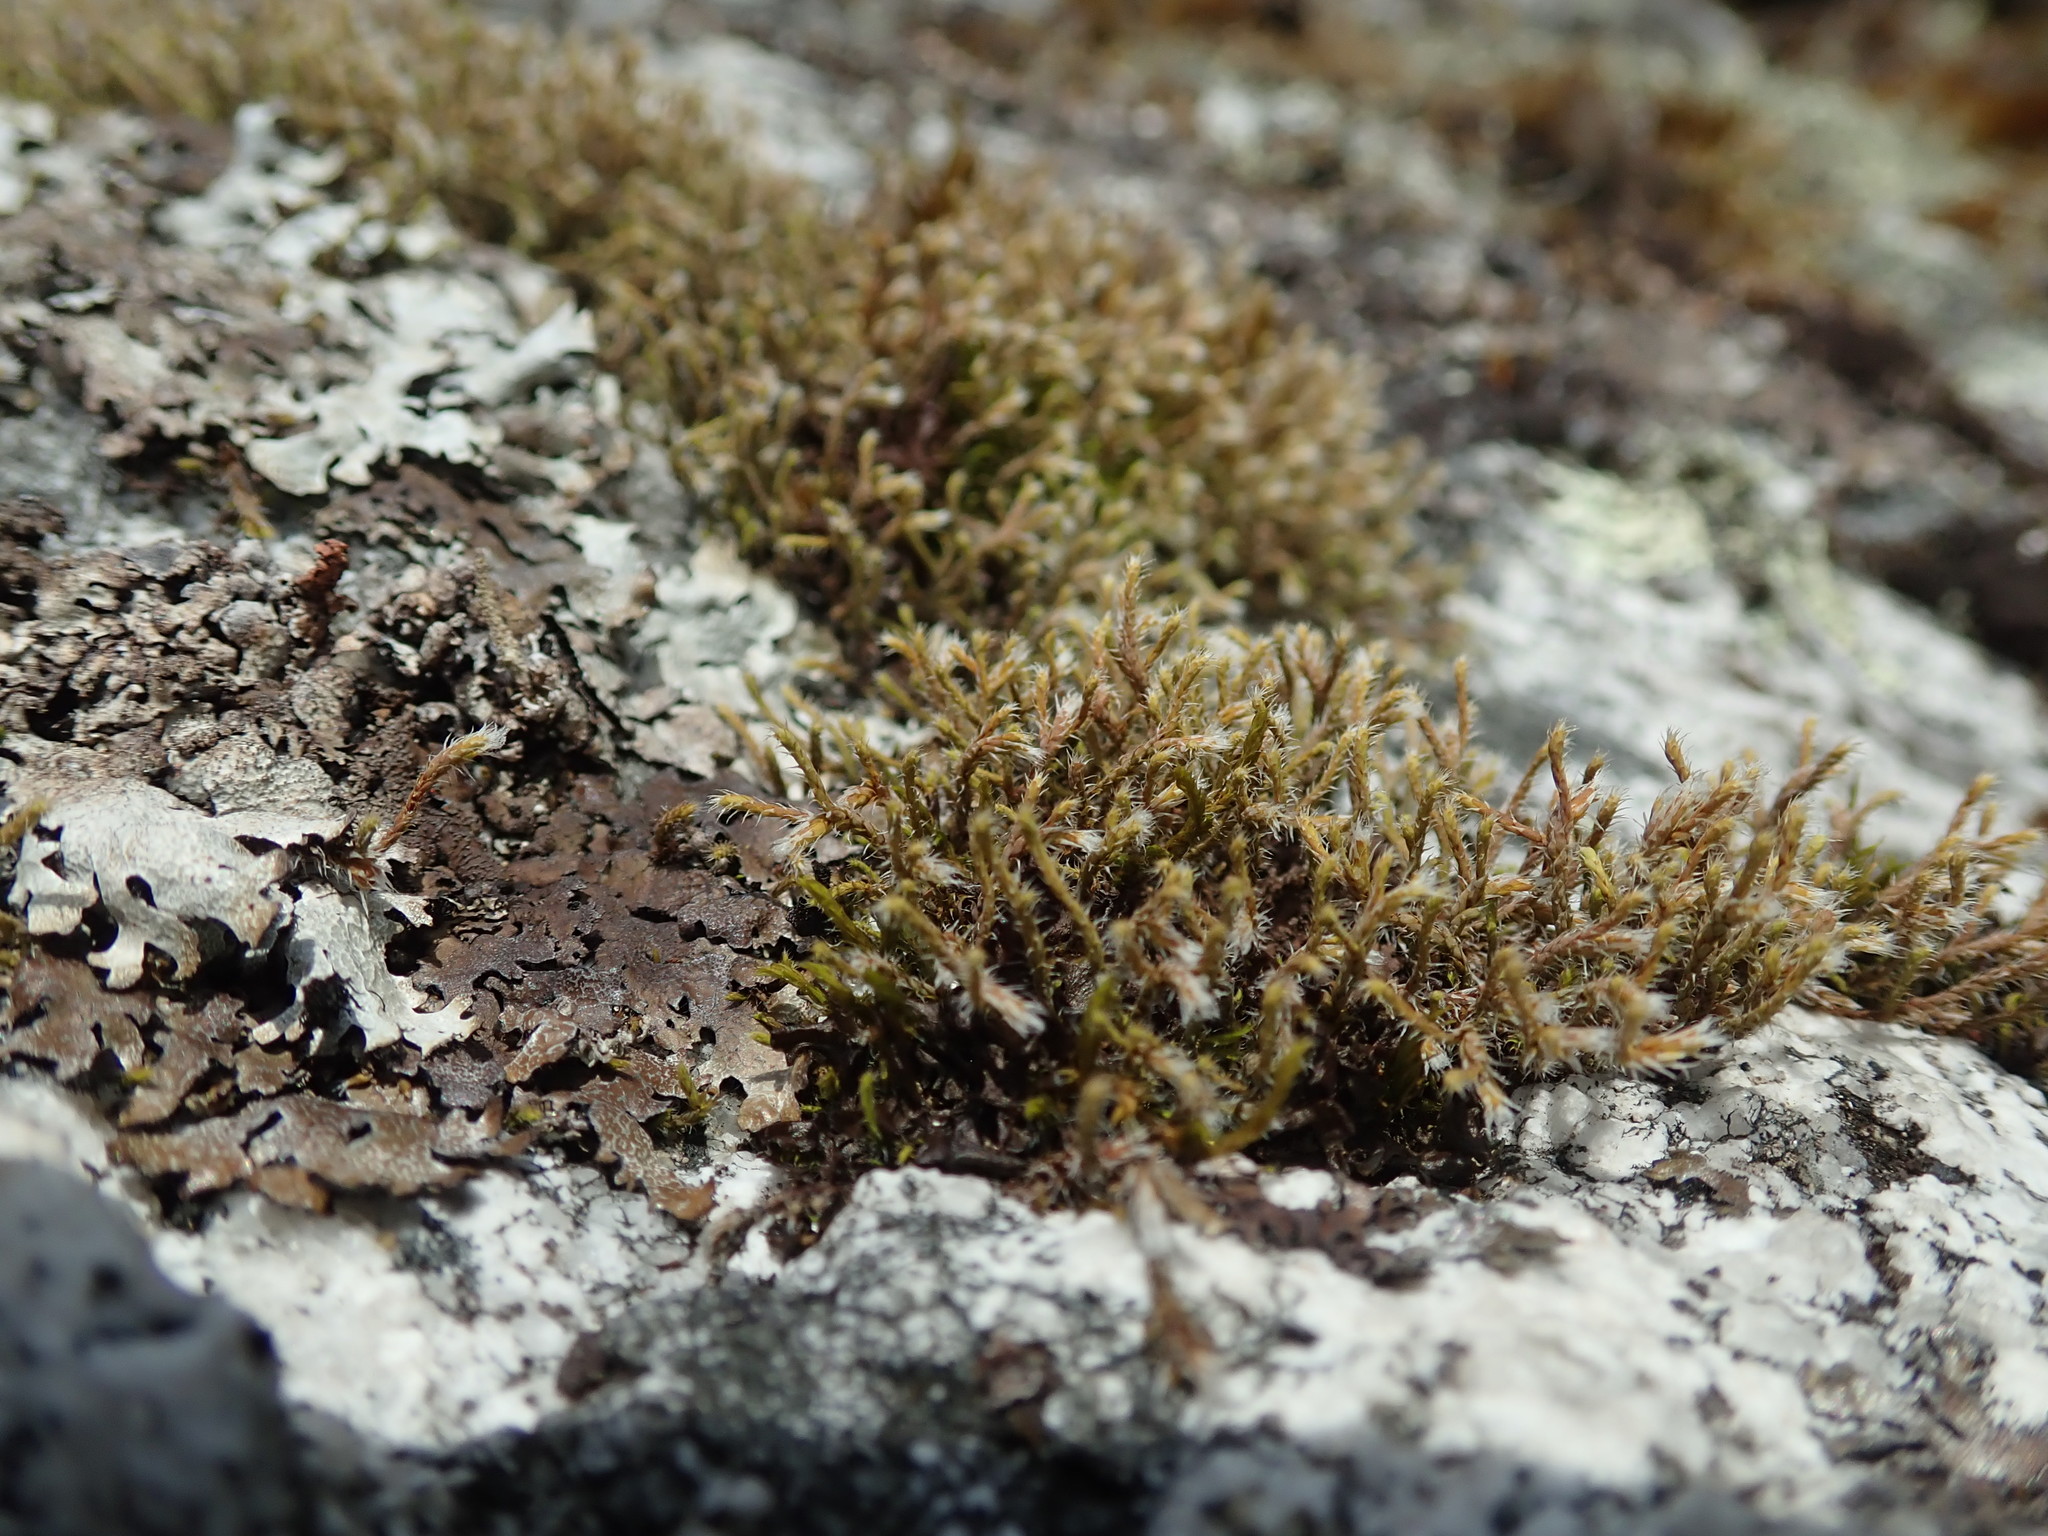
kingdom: Plantae
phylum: Bryophyta
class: Bryopsida
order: Hedwigiales
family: Hedwigiaceae
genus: Hedwigia
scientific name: Hedwigia stellata
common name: Starry hoar-moss
